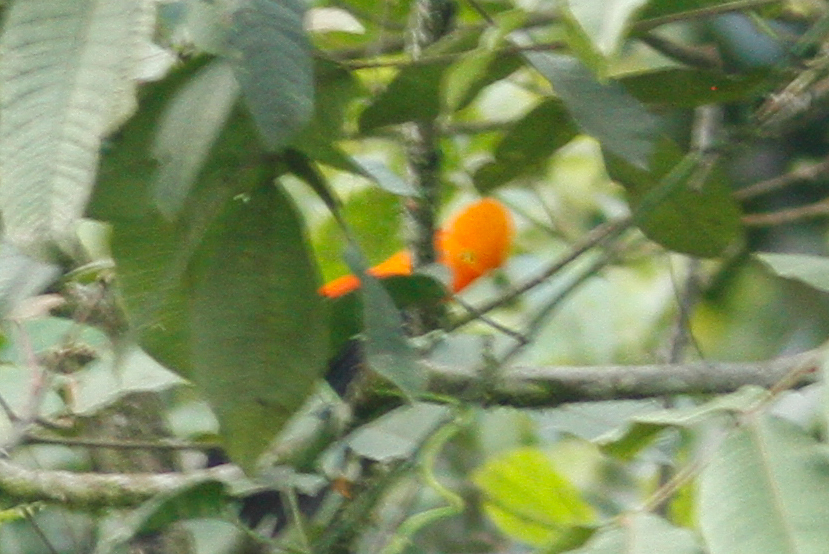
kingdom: Animalia
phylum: Chordata
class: Aves
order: Passeriformes
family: Cotingidae
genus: Rupicola
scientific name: Rupicola peruvianus
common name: Andean cock-of-the-rock
